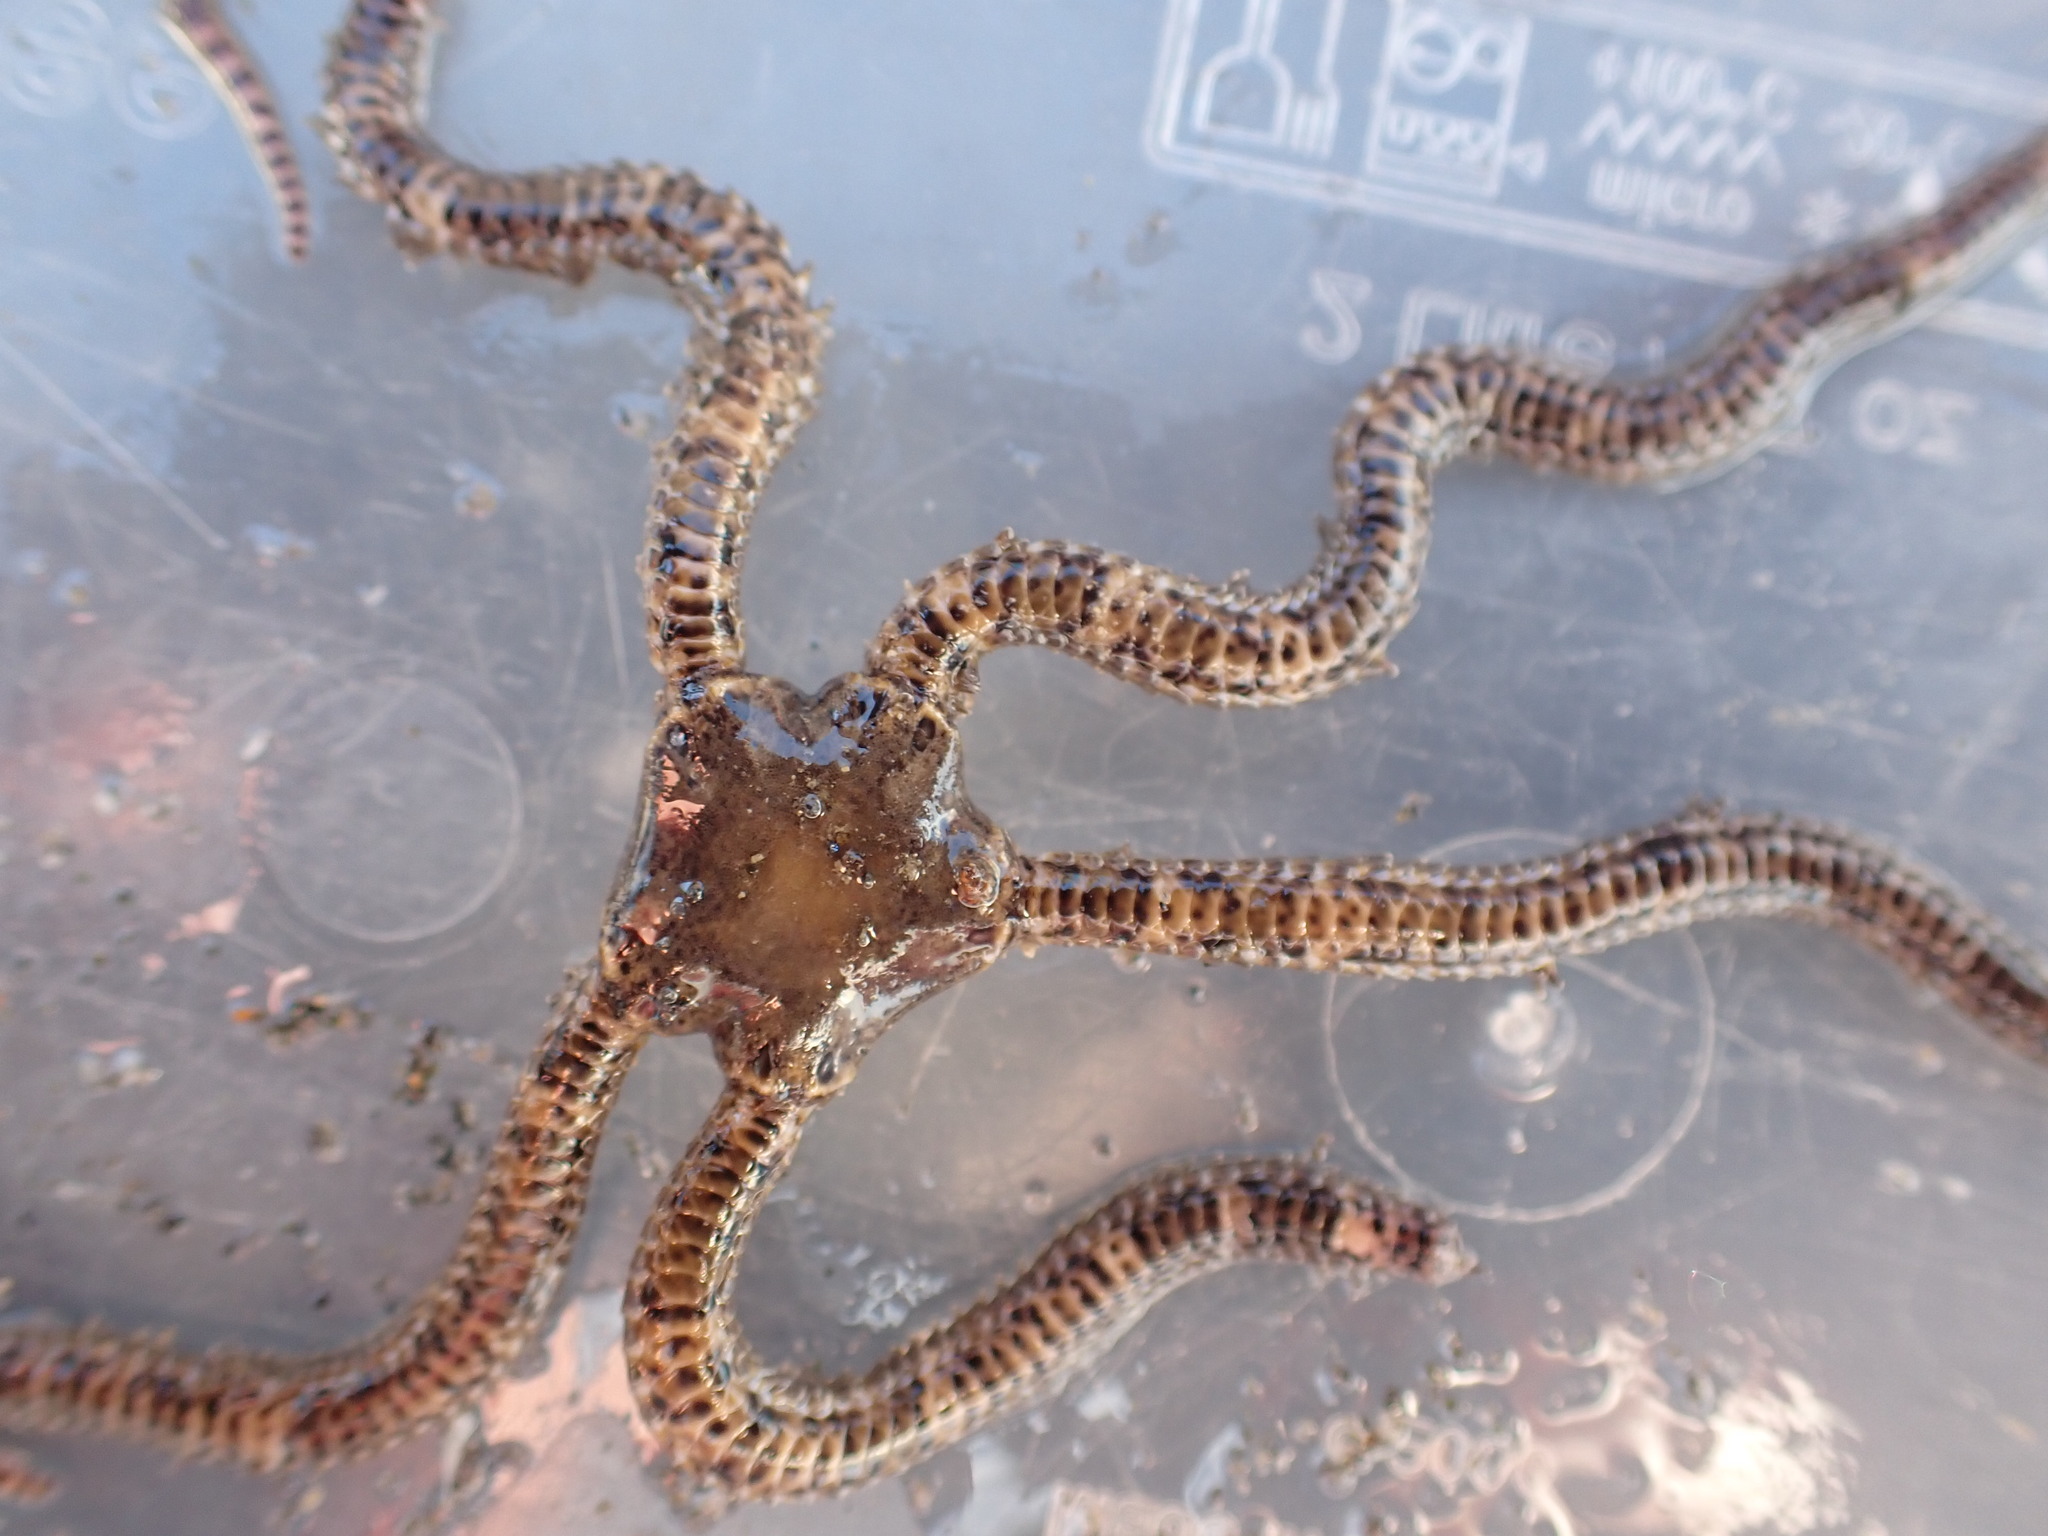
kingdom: Animalia
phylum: Echinodermata
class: Ophiuroidea
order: Amphilepidida
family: Ophionereididae
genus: Ophionereis
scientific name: Ophionereis fasciata
